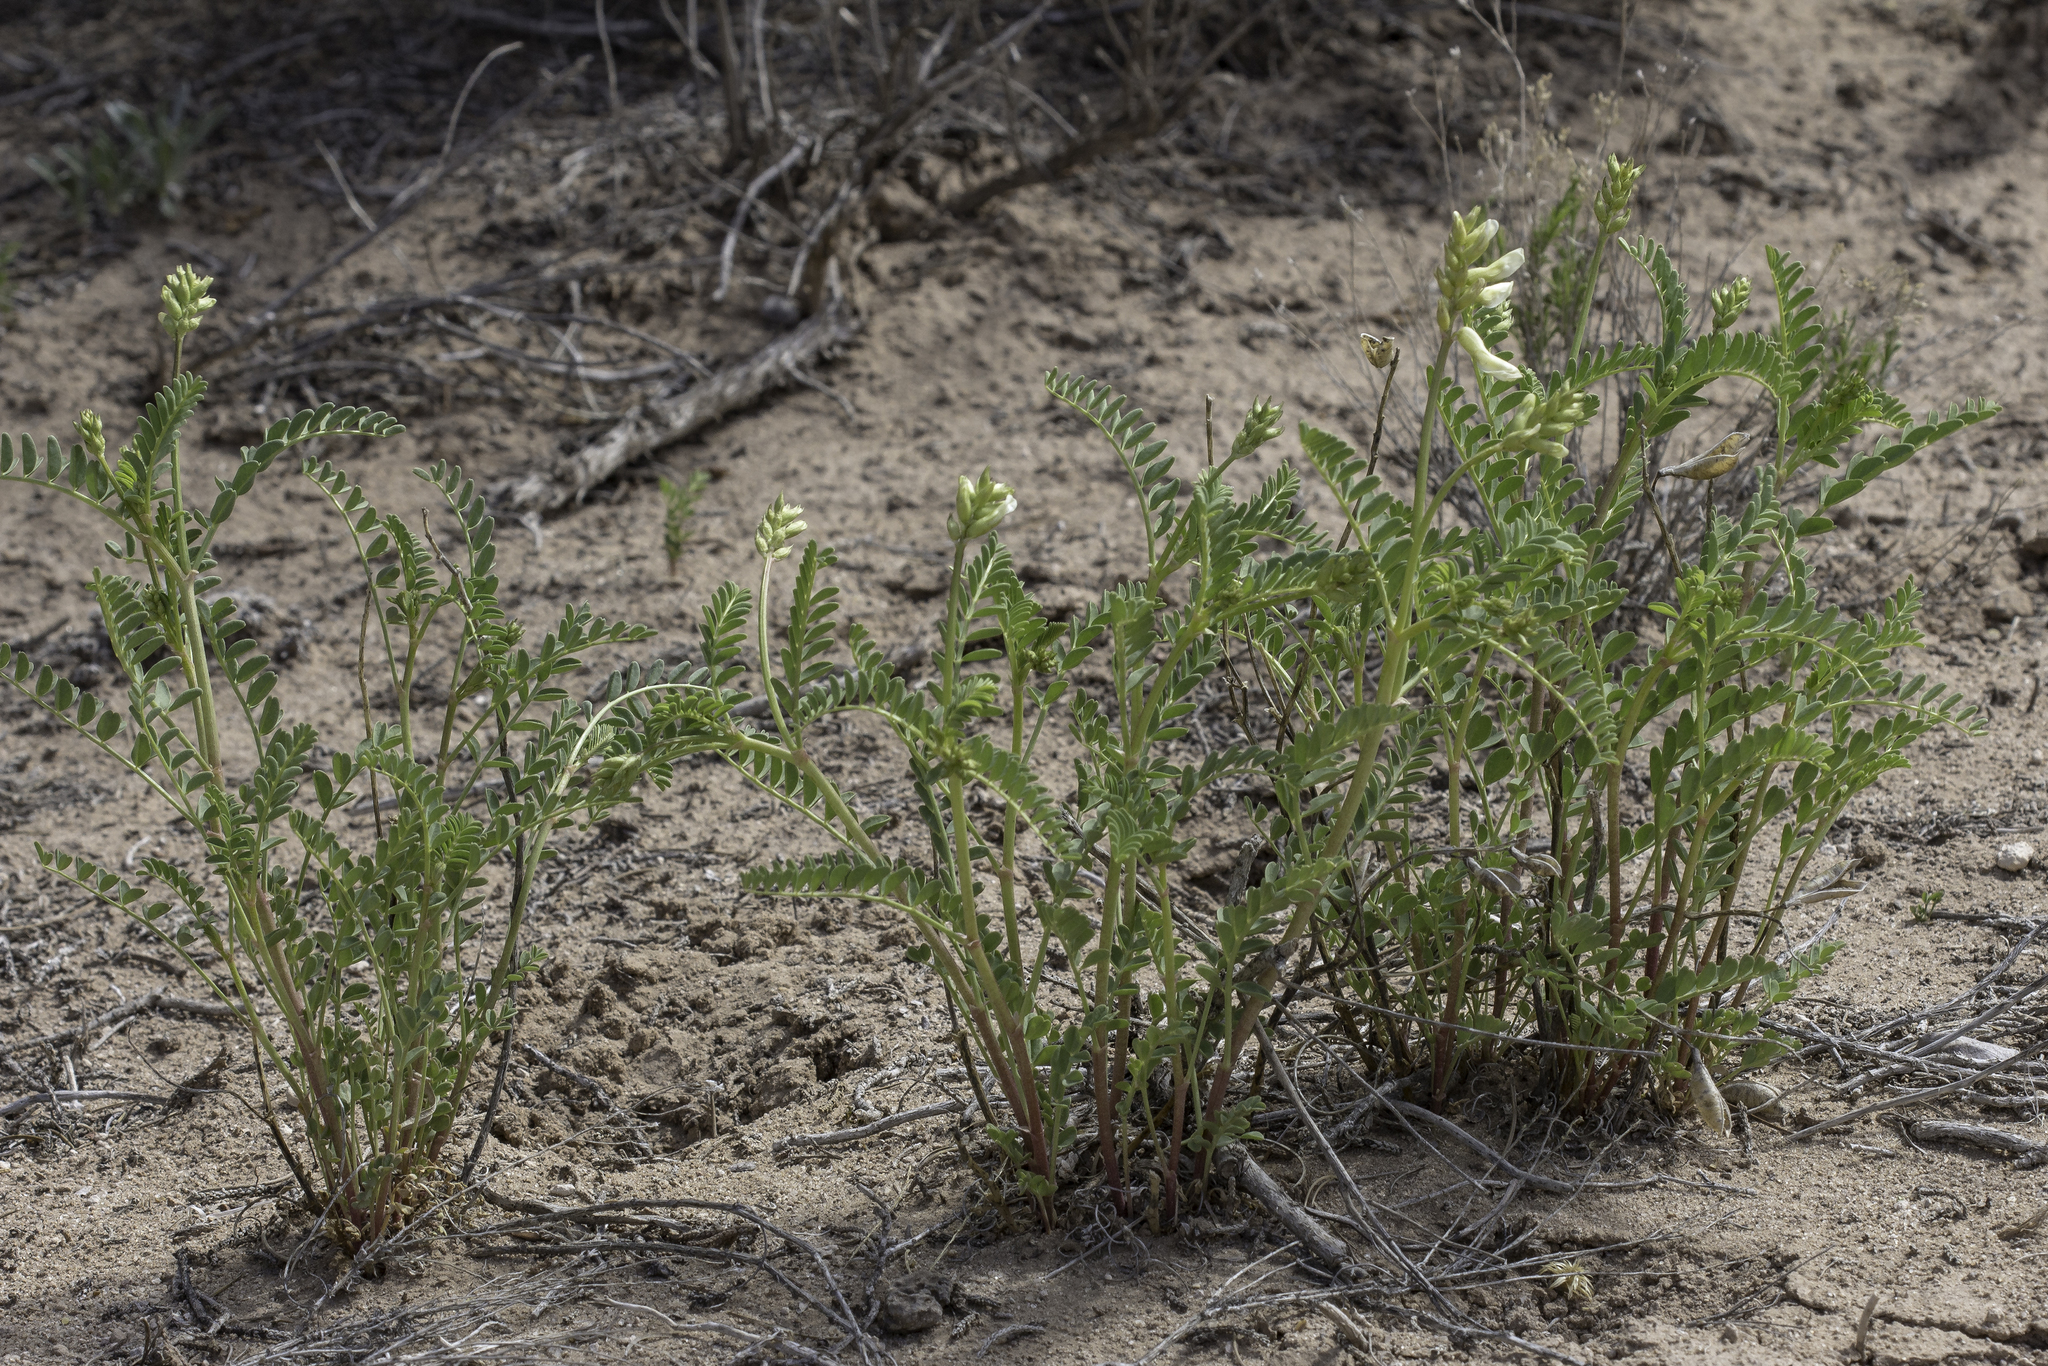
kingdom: Plantae
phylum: Tracheophyta
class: Magnoliopsida
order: Fabales
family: Fabaceae
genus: Astragalus
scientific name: Astragalus praelongus
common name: Stinking milk-vetch
